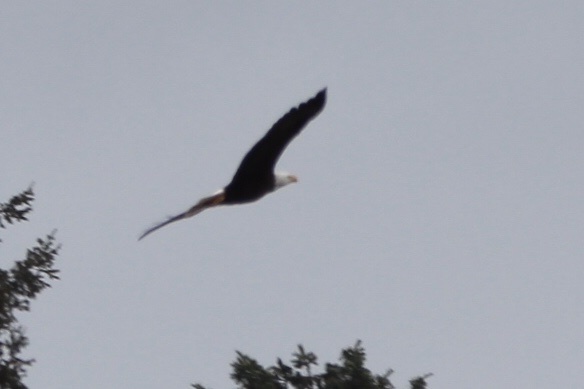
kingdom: Animalia
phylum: Chordata
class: Aves
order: Accipitriformes
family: Accipitridae
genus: Haliaeetus
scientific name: Haliaeetus leucocephalus
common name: Bald eagle
